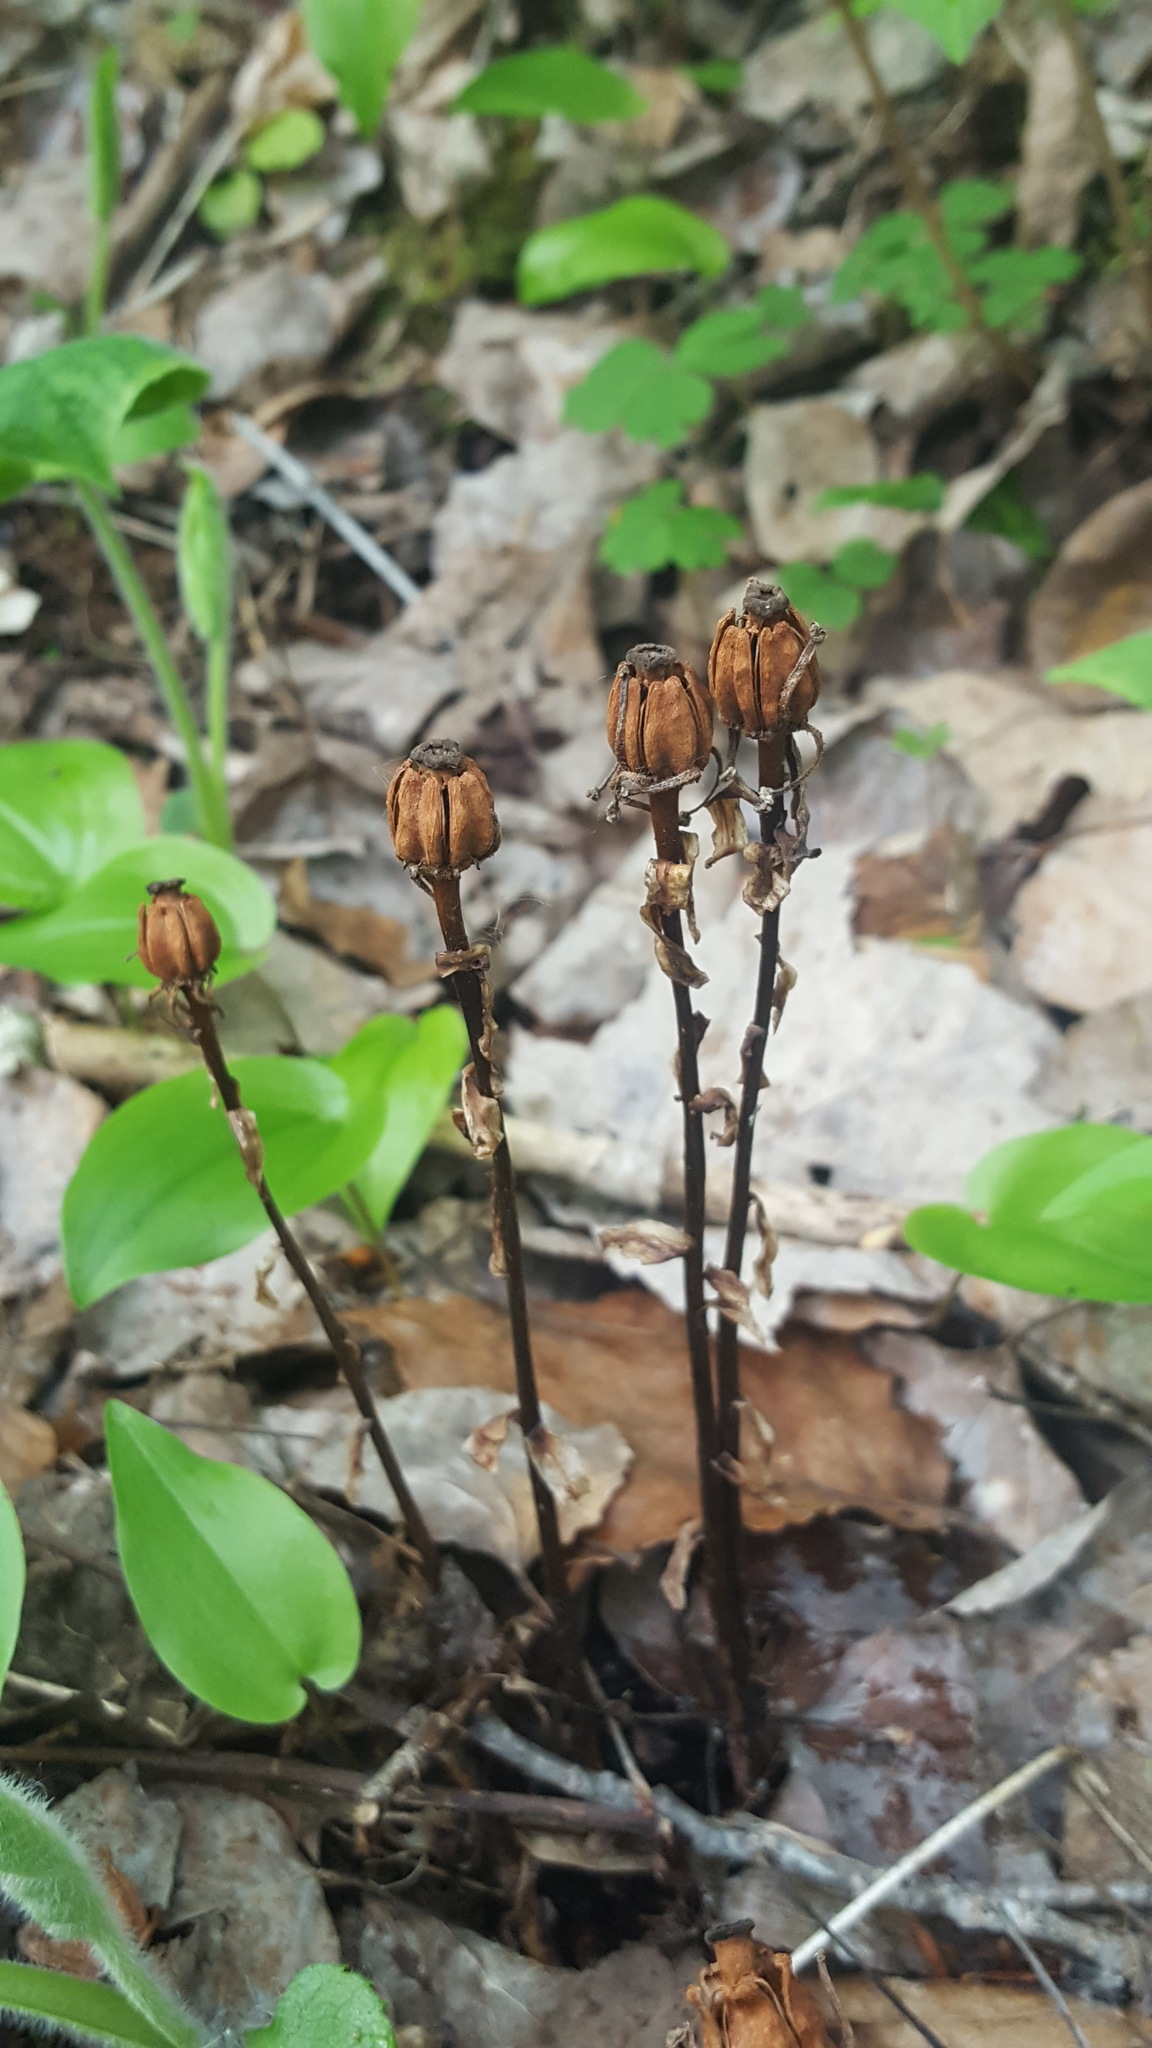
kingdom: Plantae
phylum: Tracheophyta
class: Magnoliopsida
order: Ericales
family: Ericaceae
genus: Monotropa
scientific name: Monotropa uniflora
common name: Convulsion root
